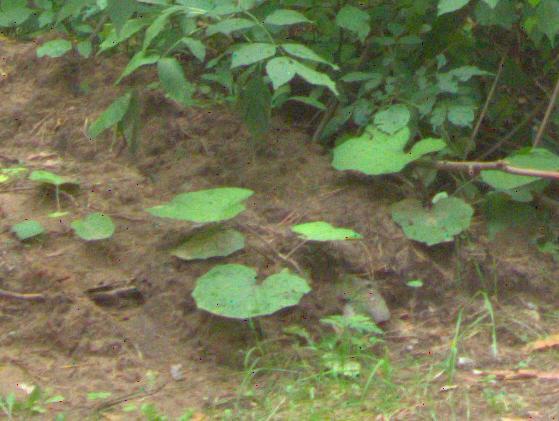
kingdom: Plantae
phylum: Tracheophyta
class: Magnoliopsida
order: Asterales
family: Asteraceae
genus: Tussilago
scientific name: Tussilago farfara
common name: Coltsfoot
